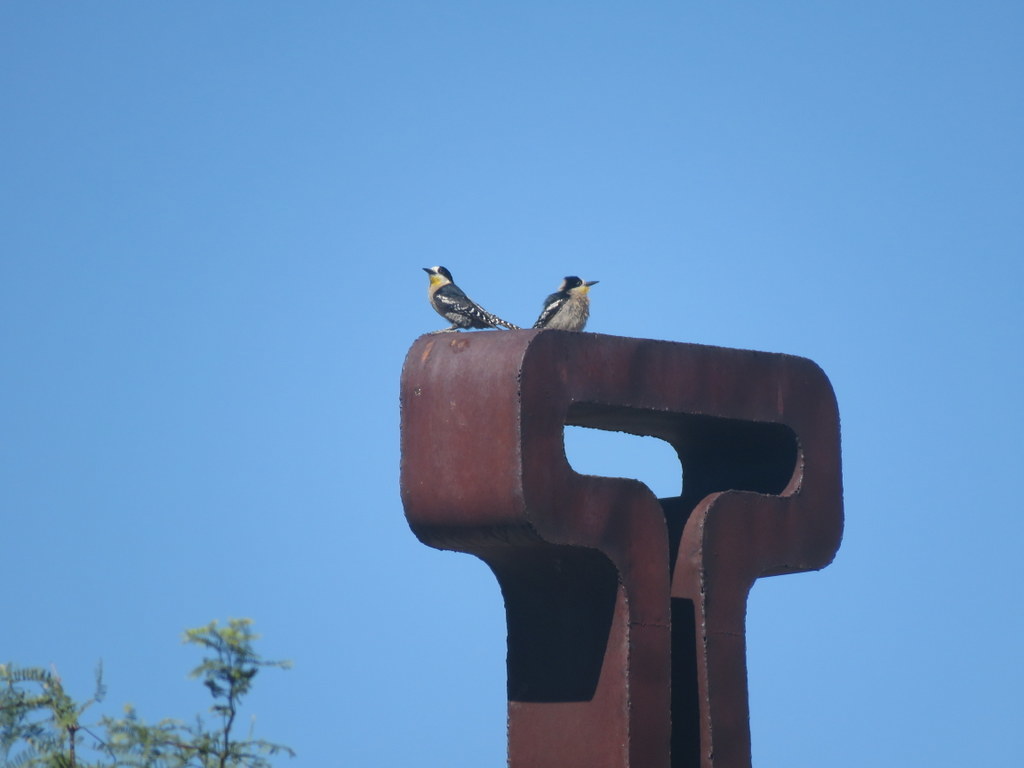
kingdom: Animalia
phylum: Chordata
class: Aves
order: Piciformes
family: Picidae
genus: Melanerpes
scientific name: Melanerpes cactorum
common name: White-fronted woodpecker
